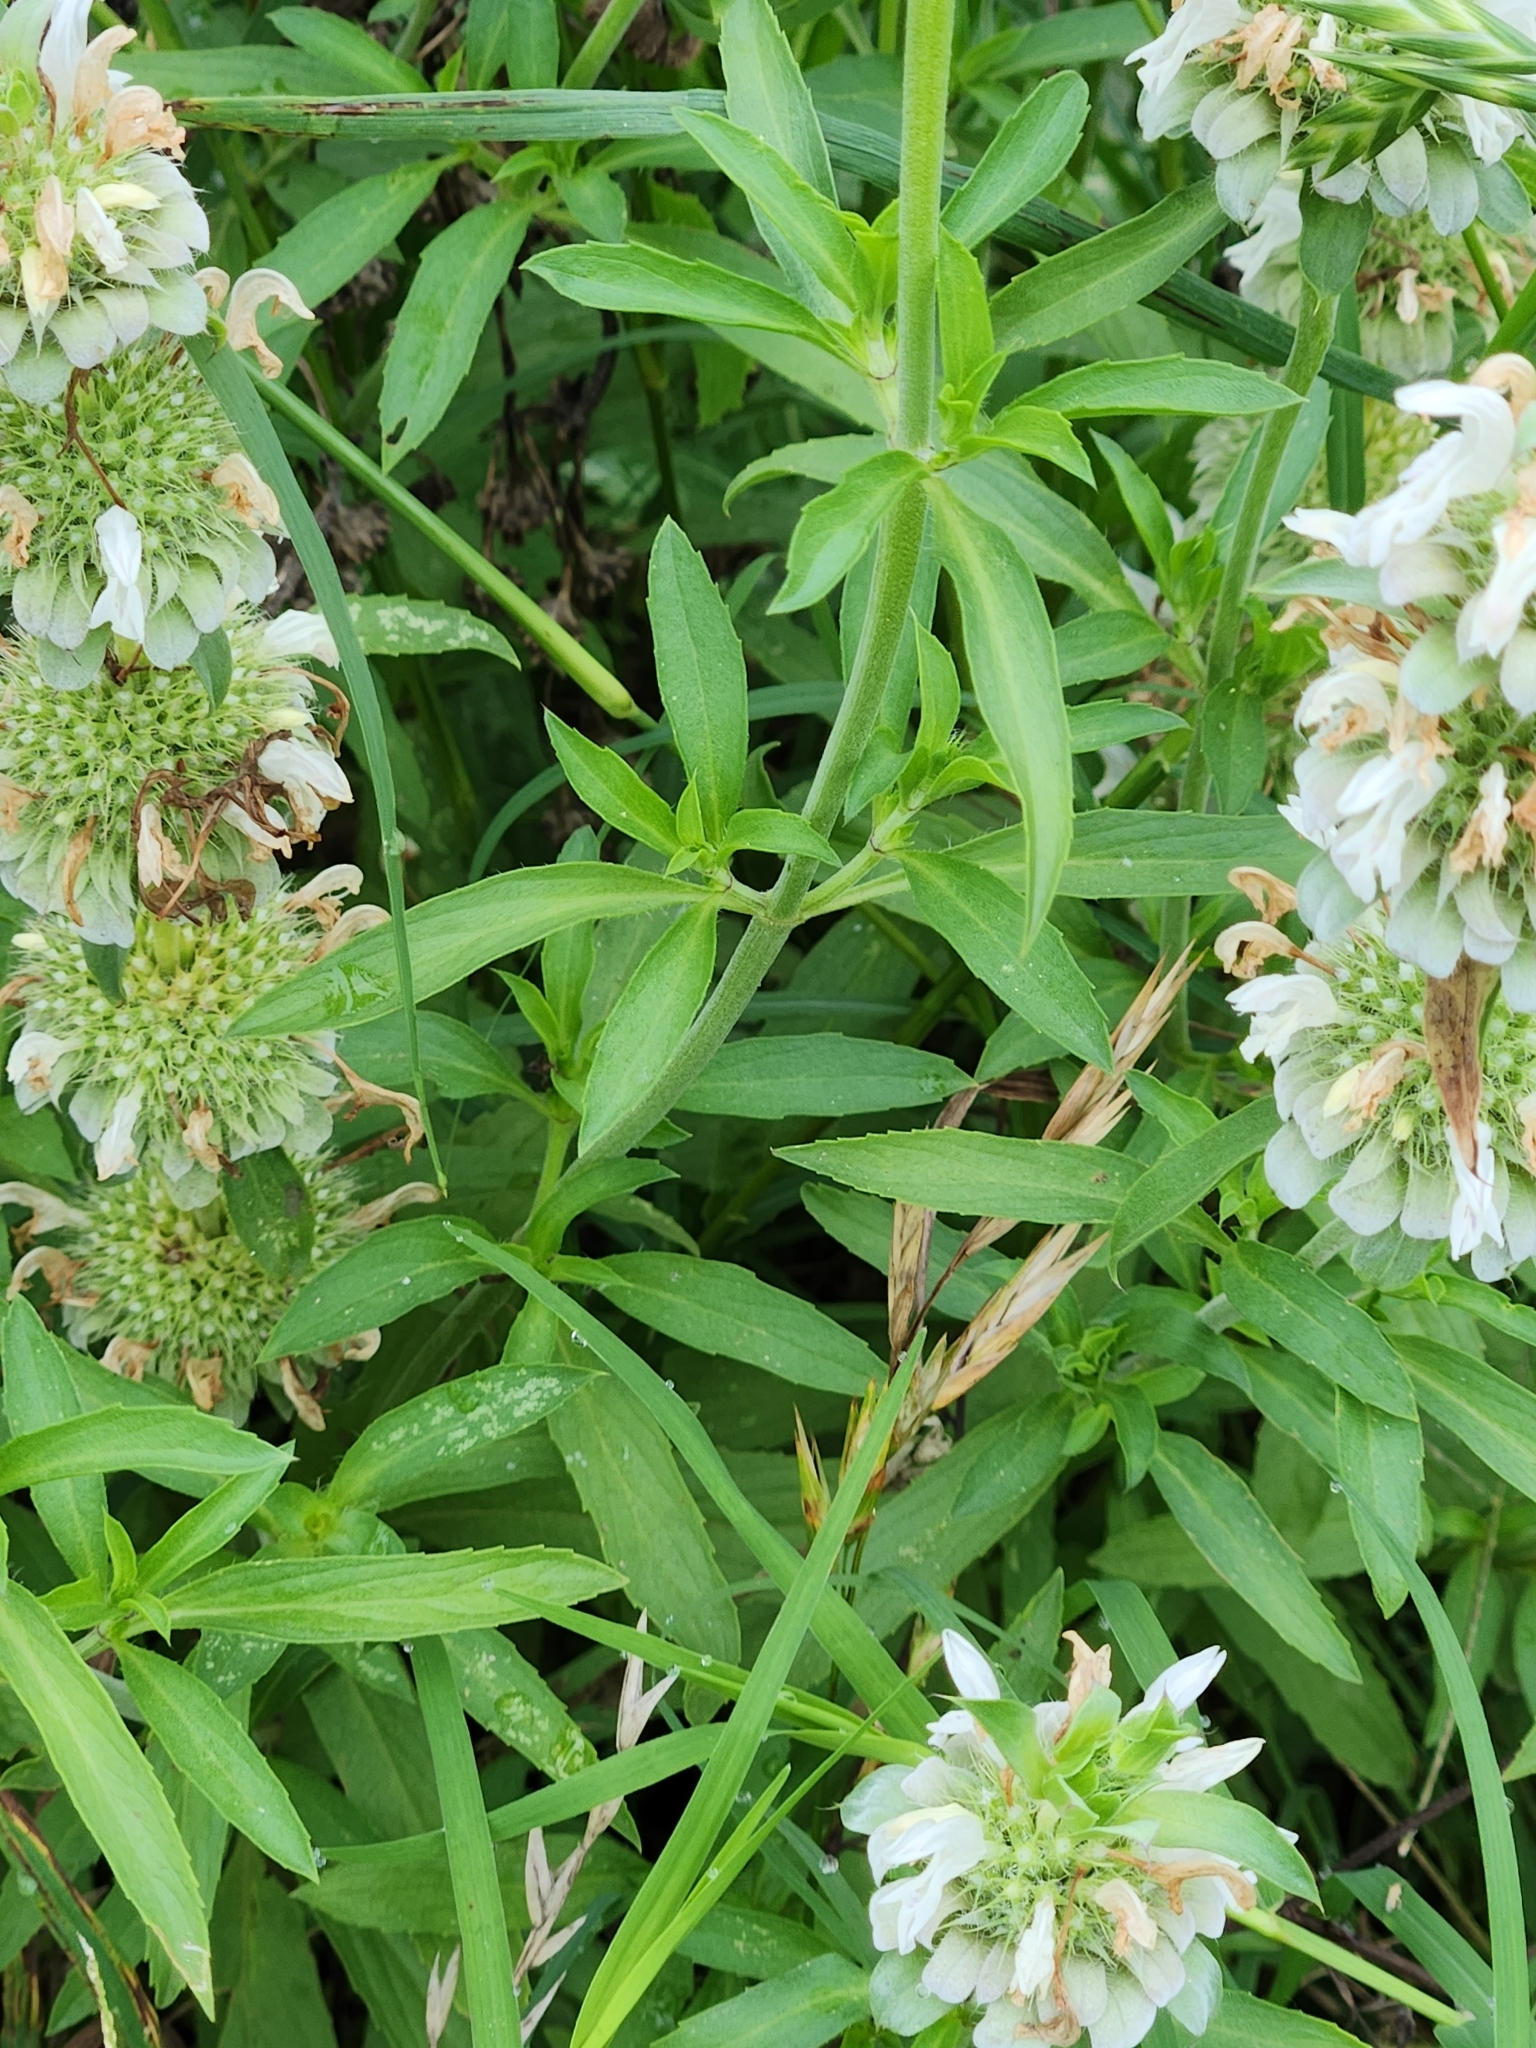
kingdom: Plantae
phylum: Tracheophyta
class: Magnoliopsida
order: Lamiales
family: Lamiaceae
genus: Monarda
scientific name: Monarda citriodora
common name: Lemon beebalm
